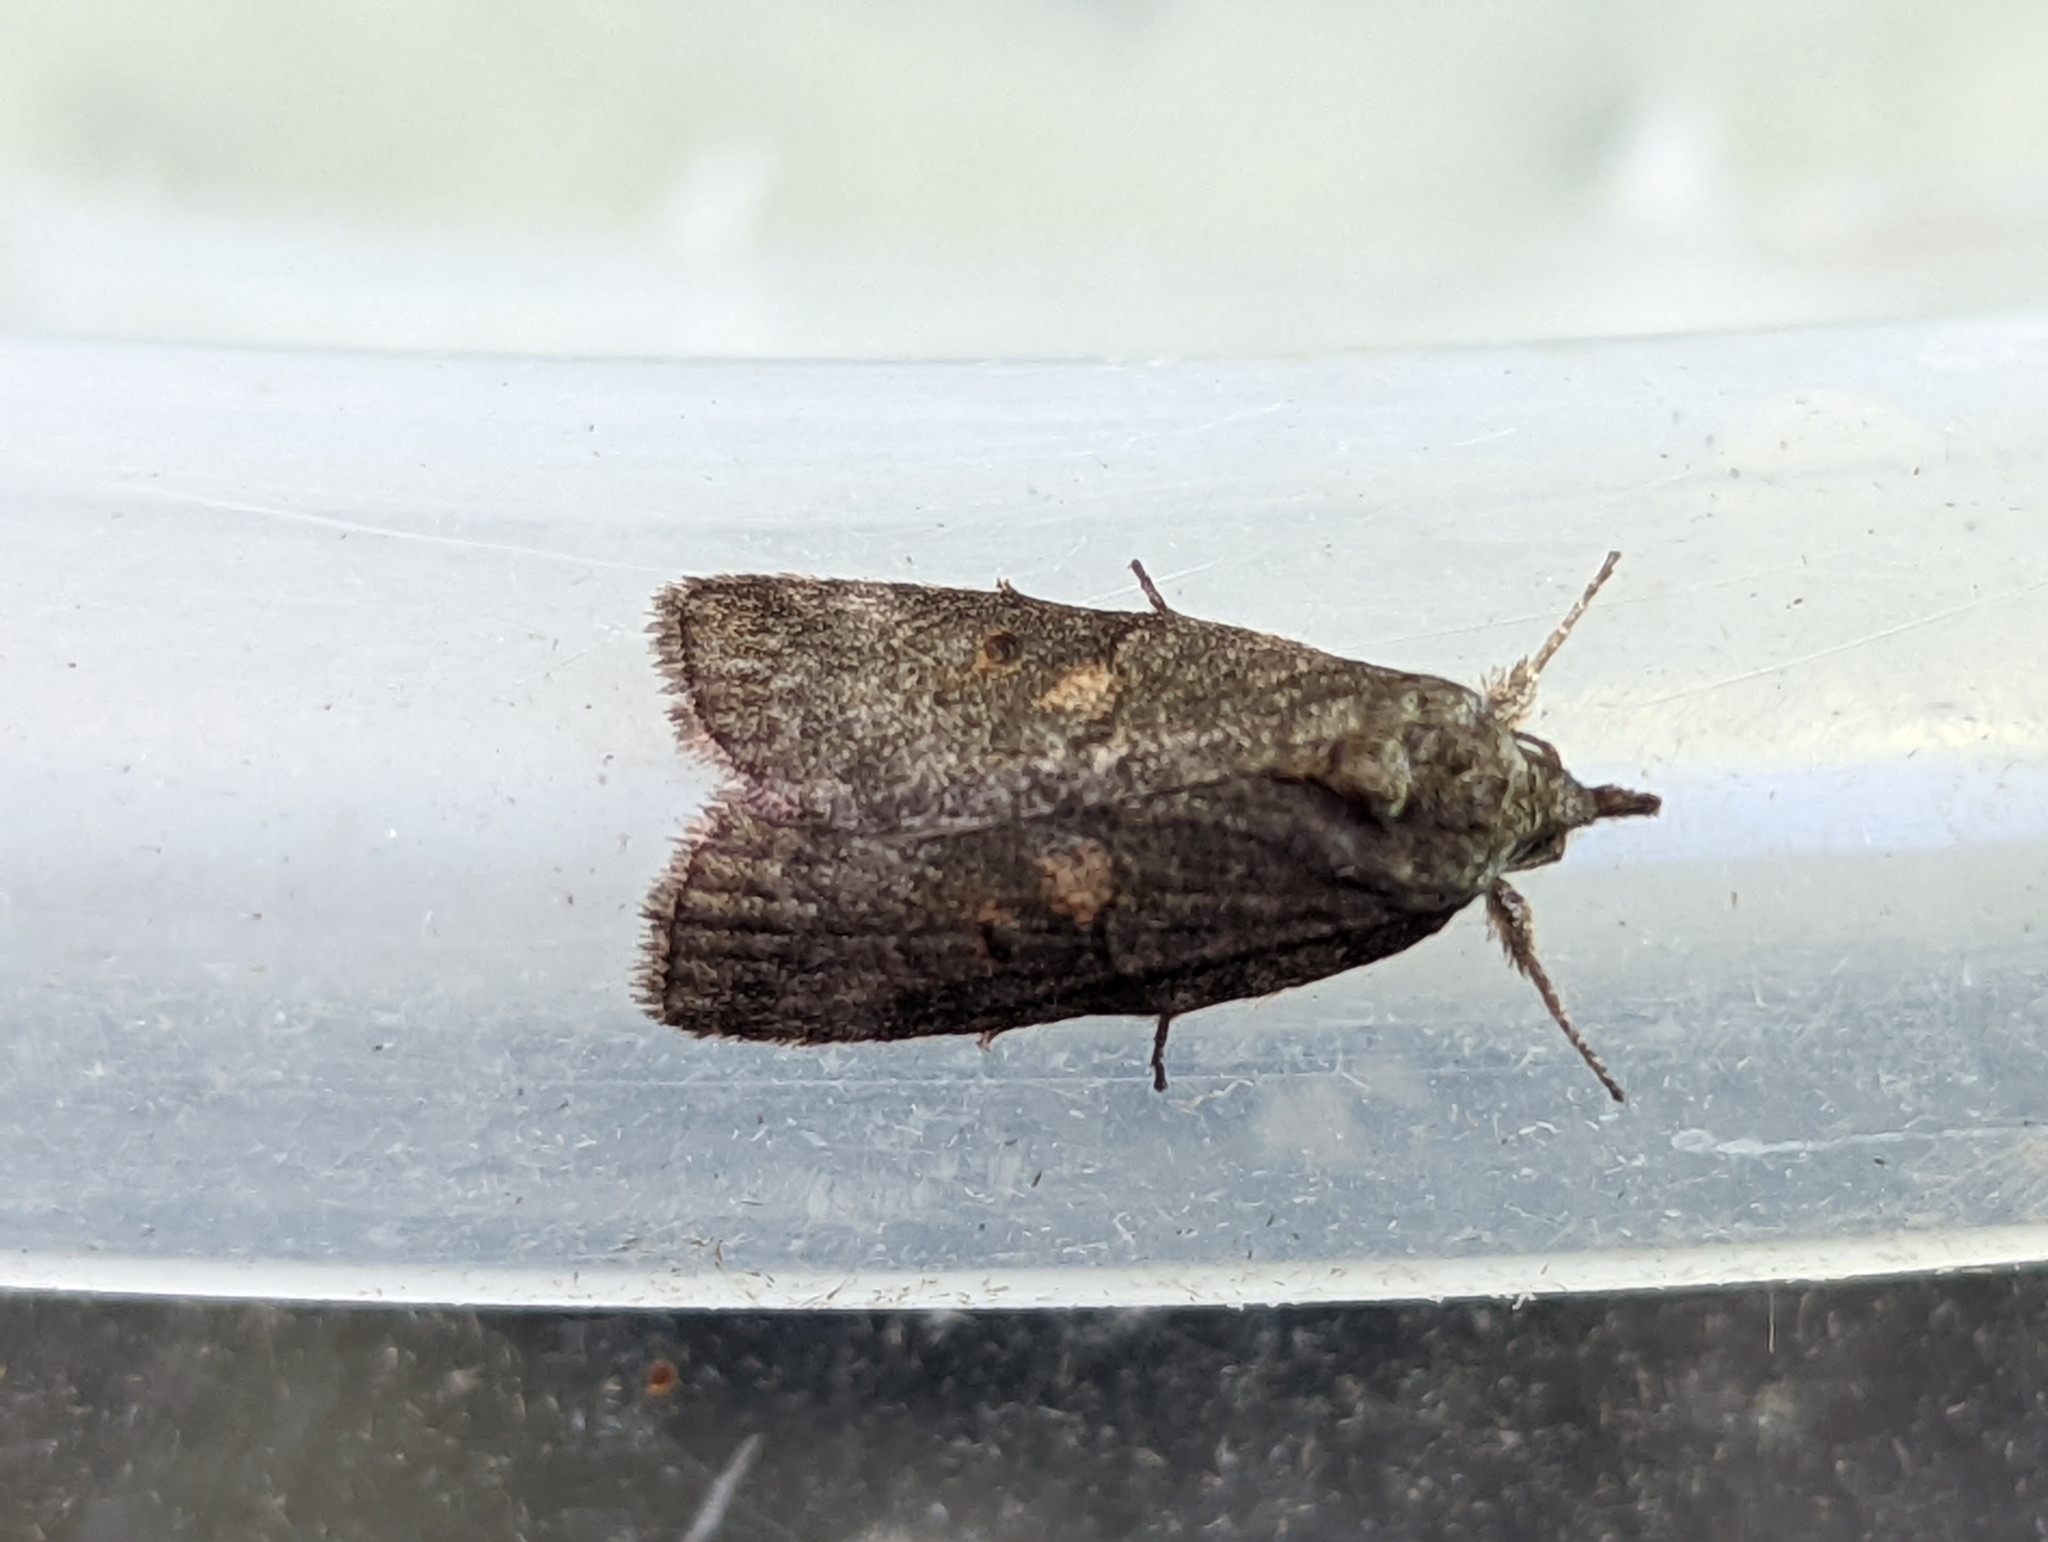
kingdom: Animalia
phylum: Arthropoda
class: Insecta
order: Lepidoptera
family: Nolidae
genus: Nycteola
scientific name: Nycteola revayana
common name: Oak nycteoline
